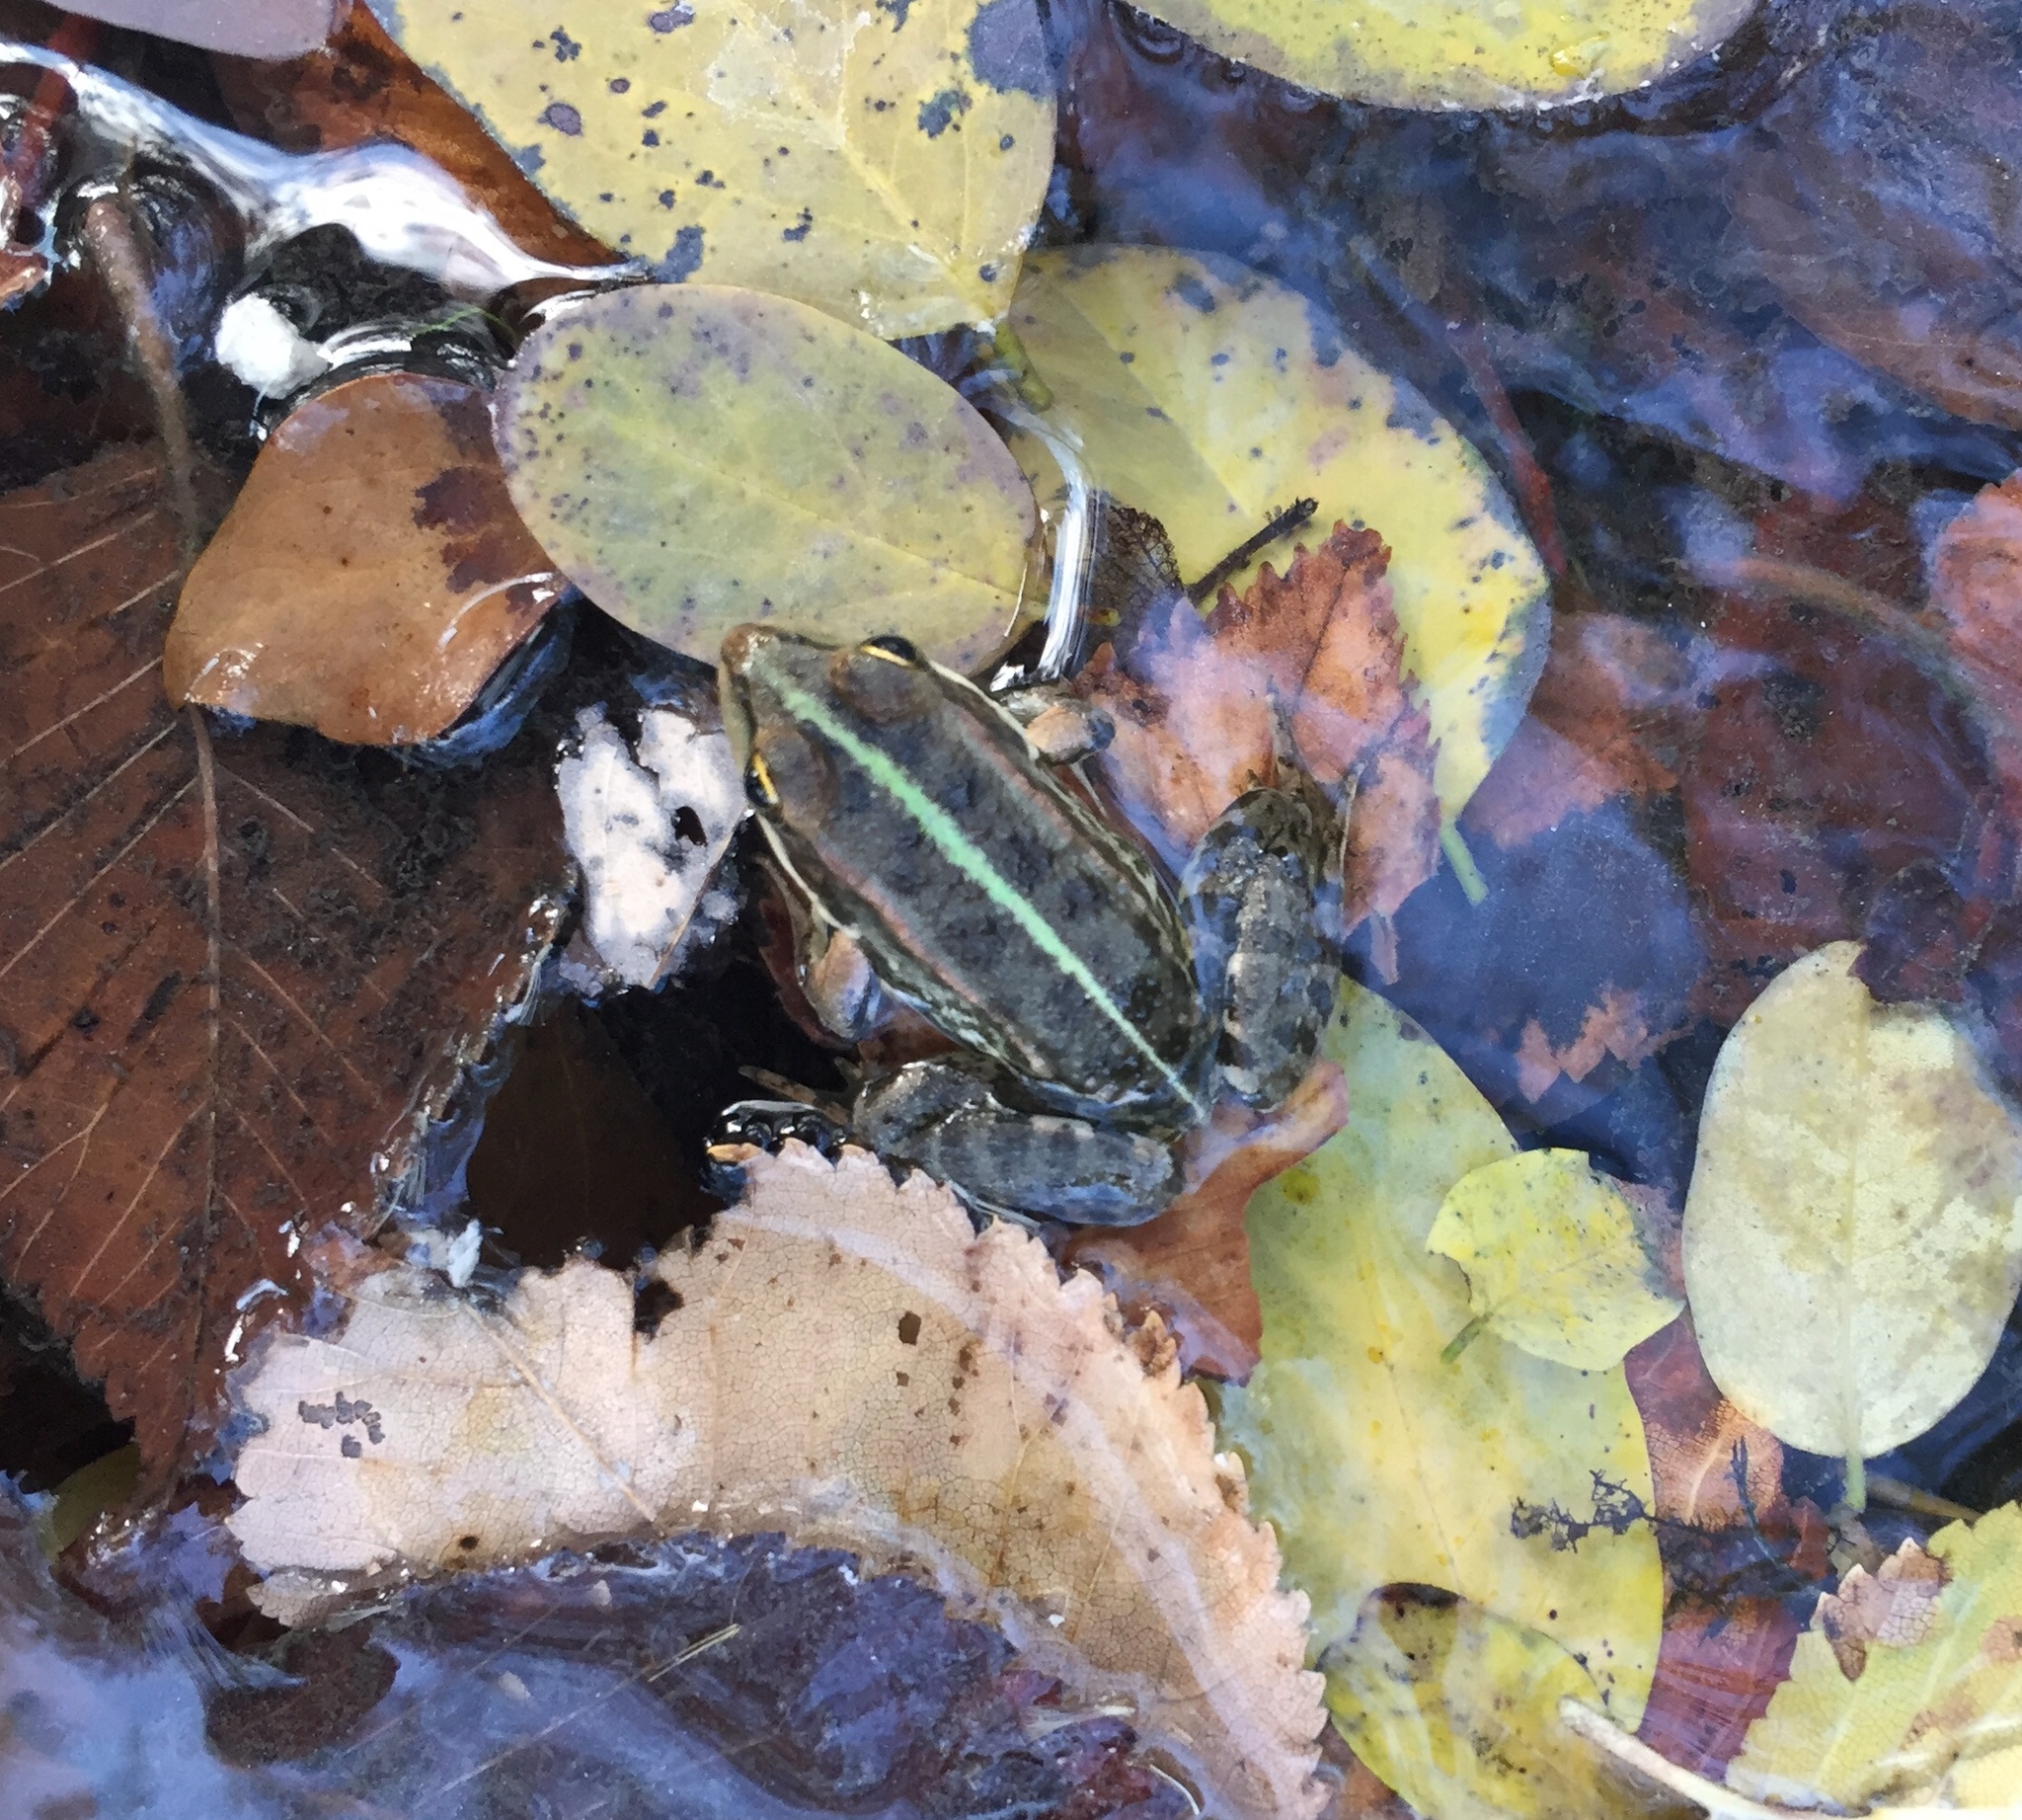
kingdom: Animalia
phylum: Chordata
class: Amphibia
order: Anura
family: Ranidae
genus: Pelophylax
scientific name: Pelophylax ridibundus
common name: Marsh frog
